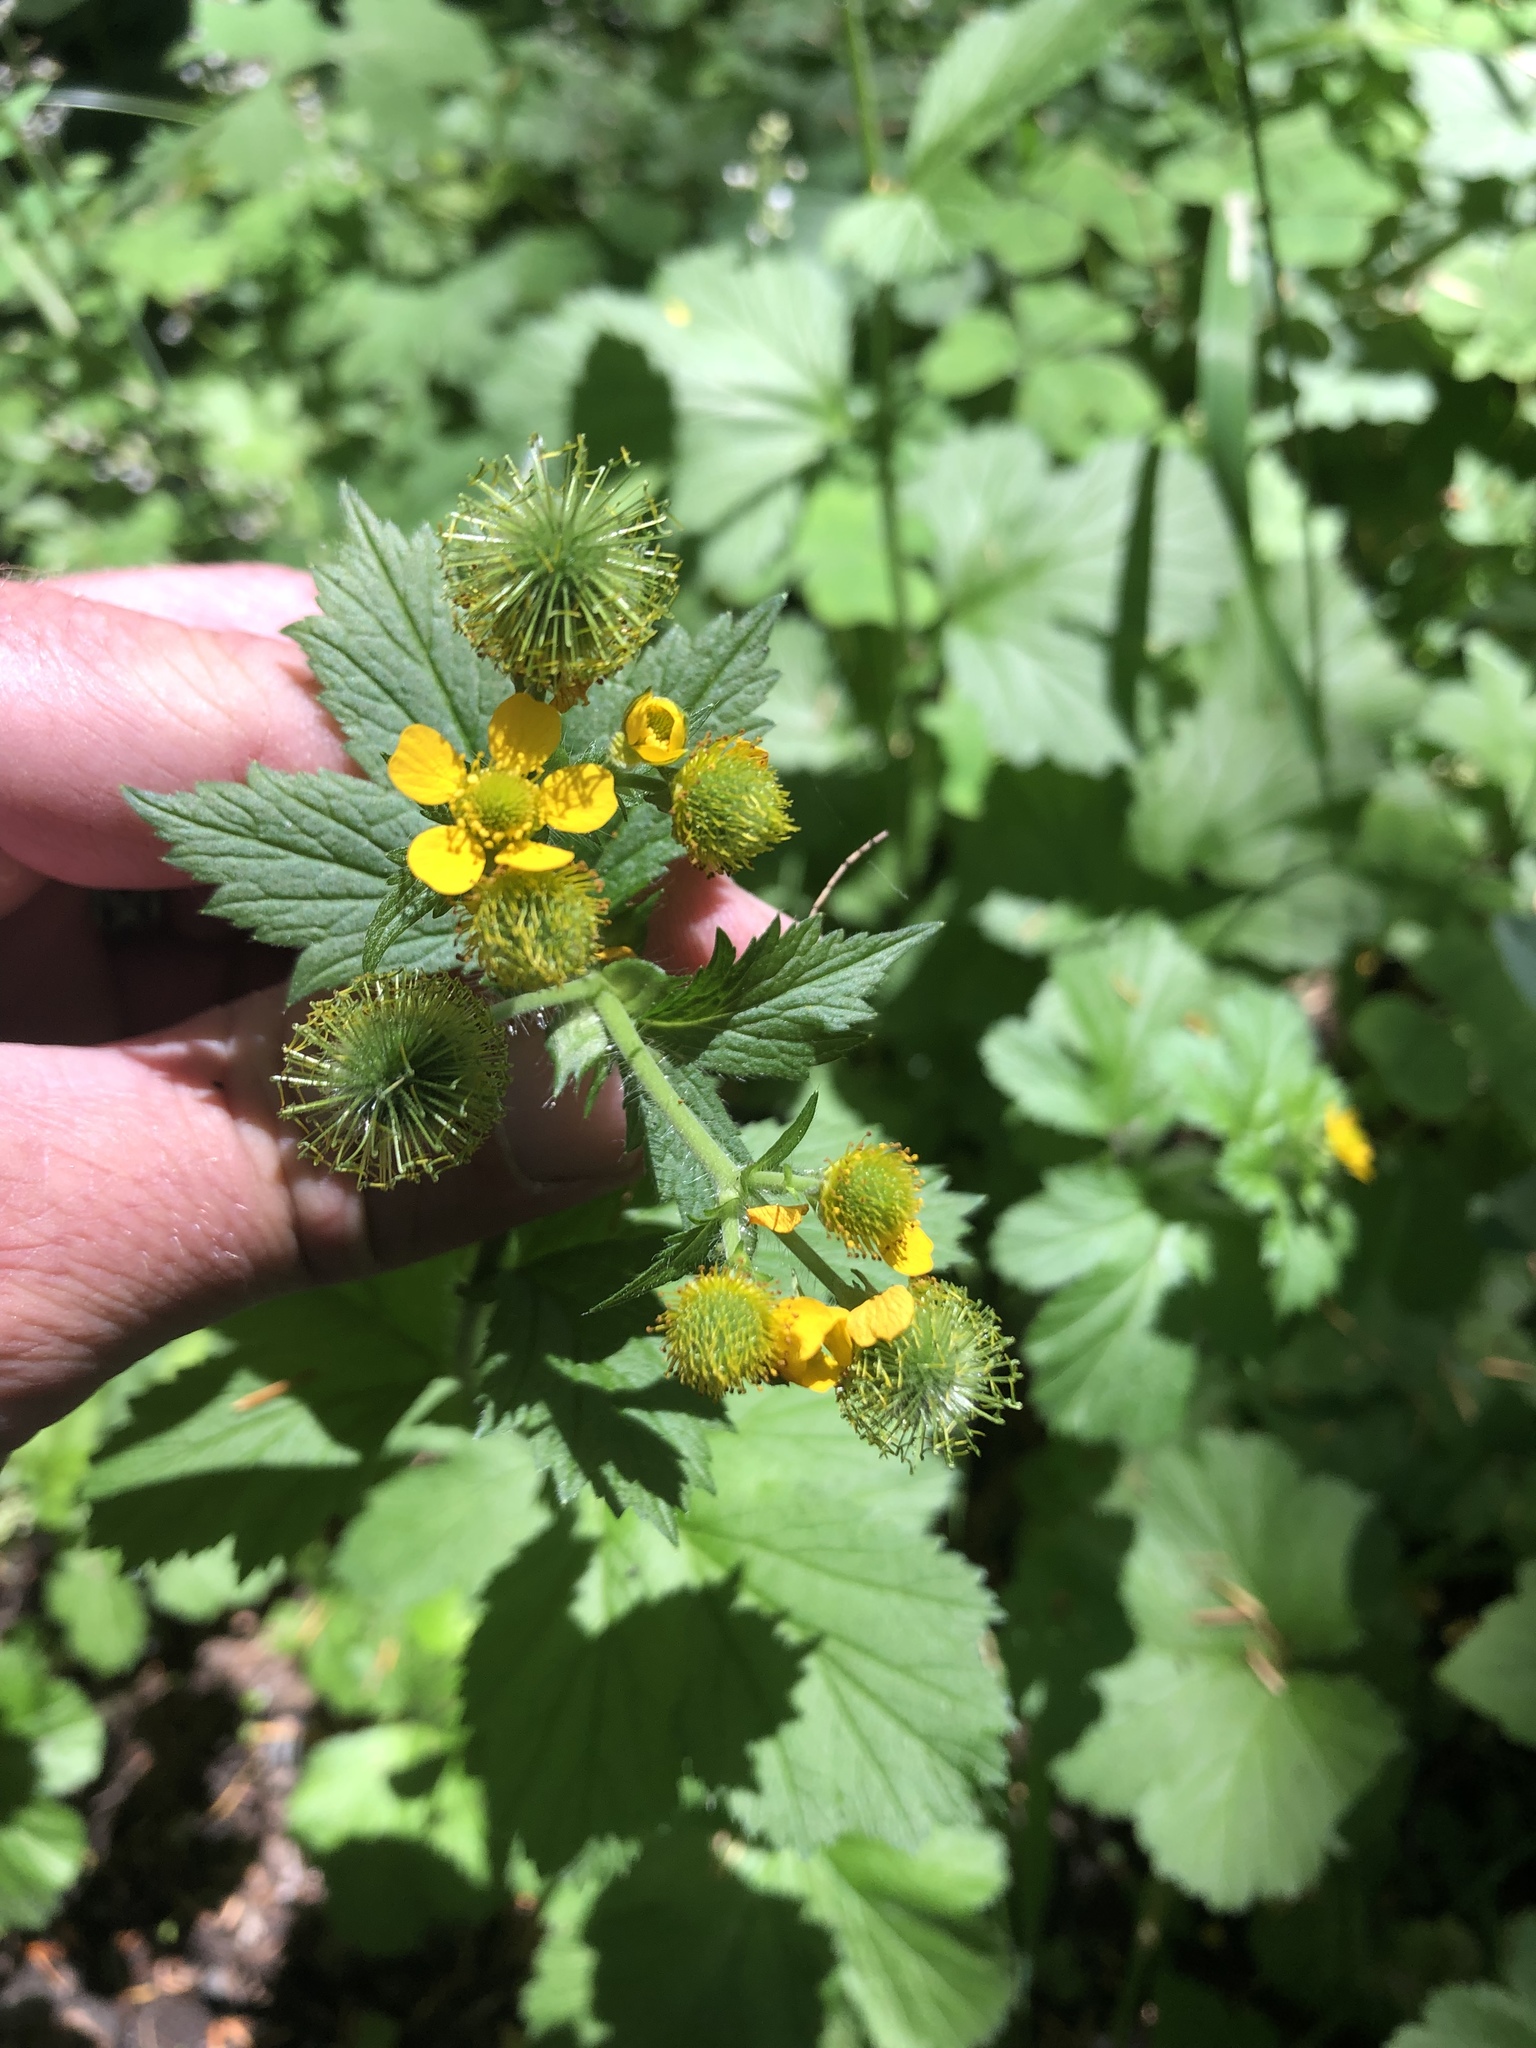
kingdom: Plantae
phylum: Tracheophyta
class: Magnoliopsida
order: Rosales
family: Rosaceae
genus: Geum
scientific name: Geum macrophyllum
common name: Large-leaved avens
